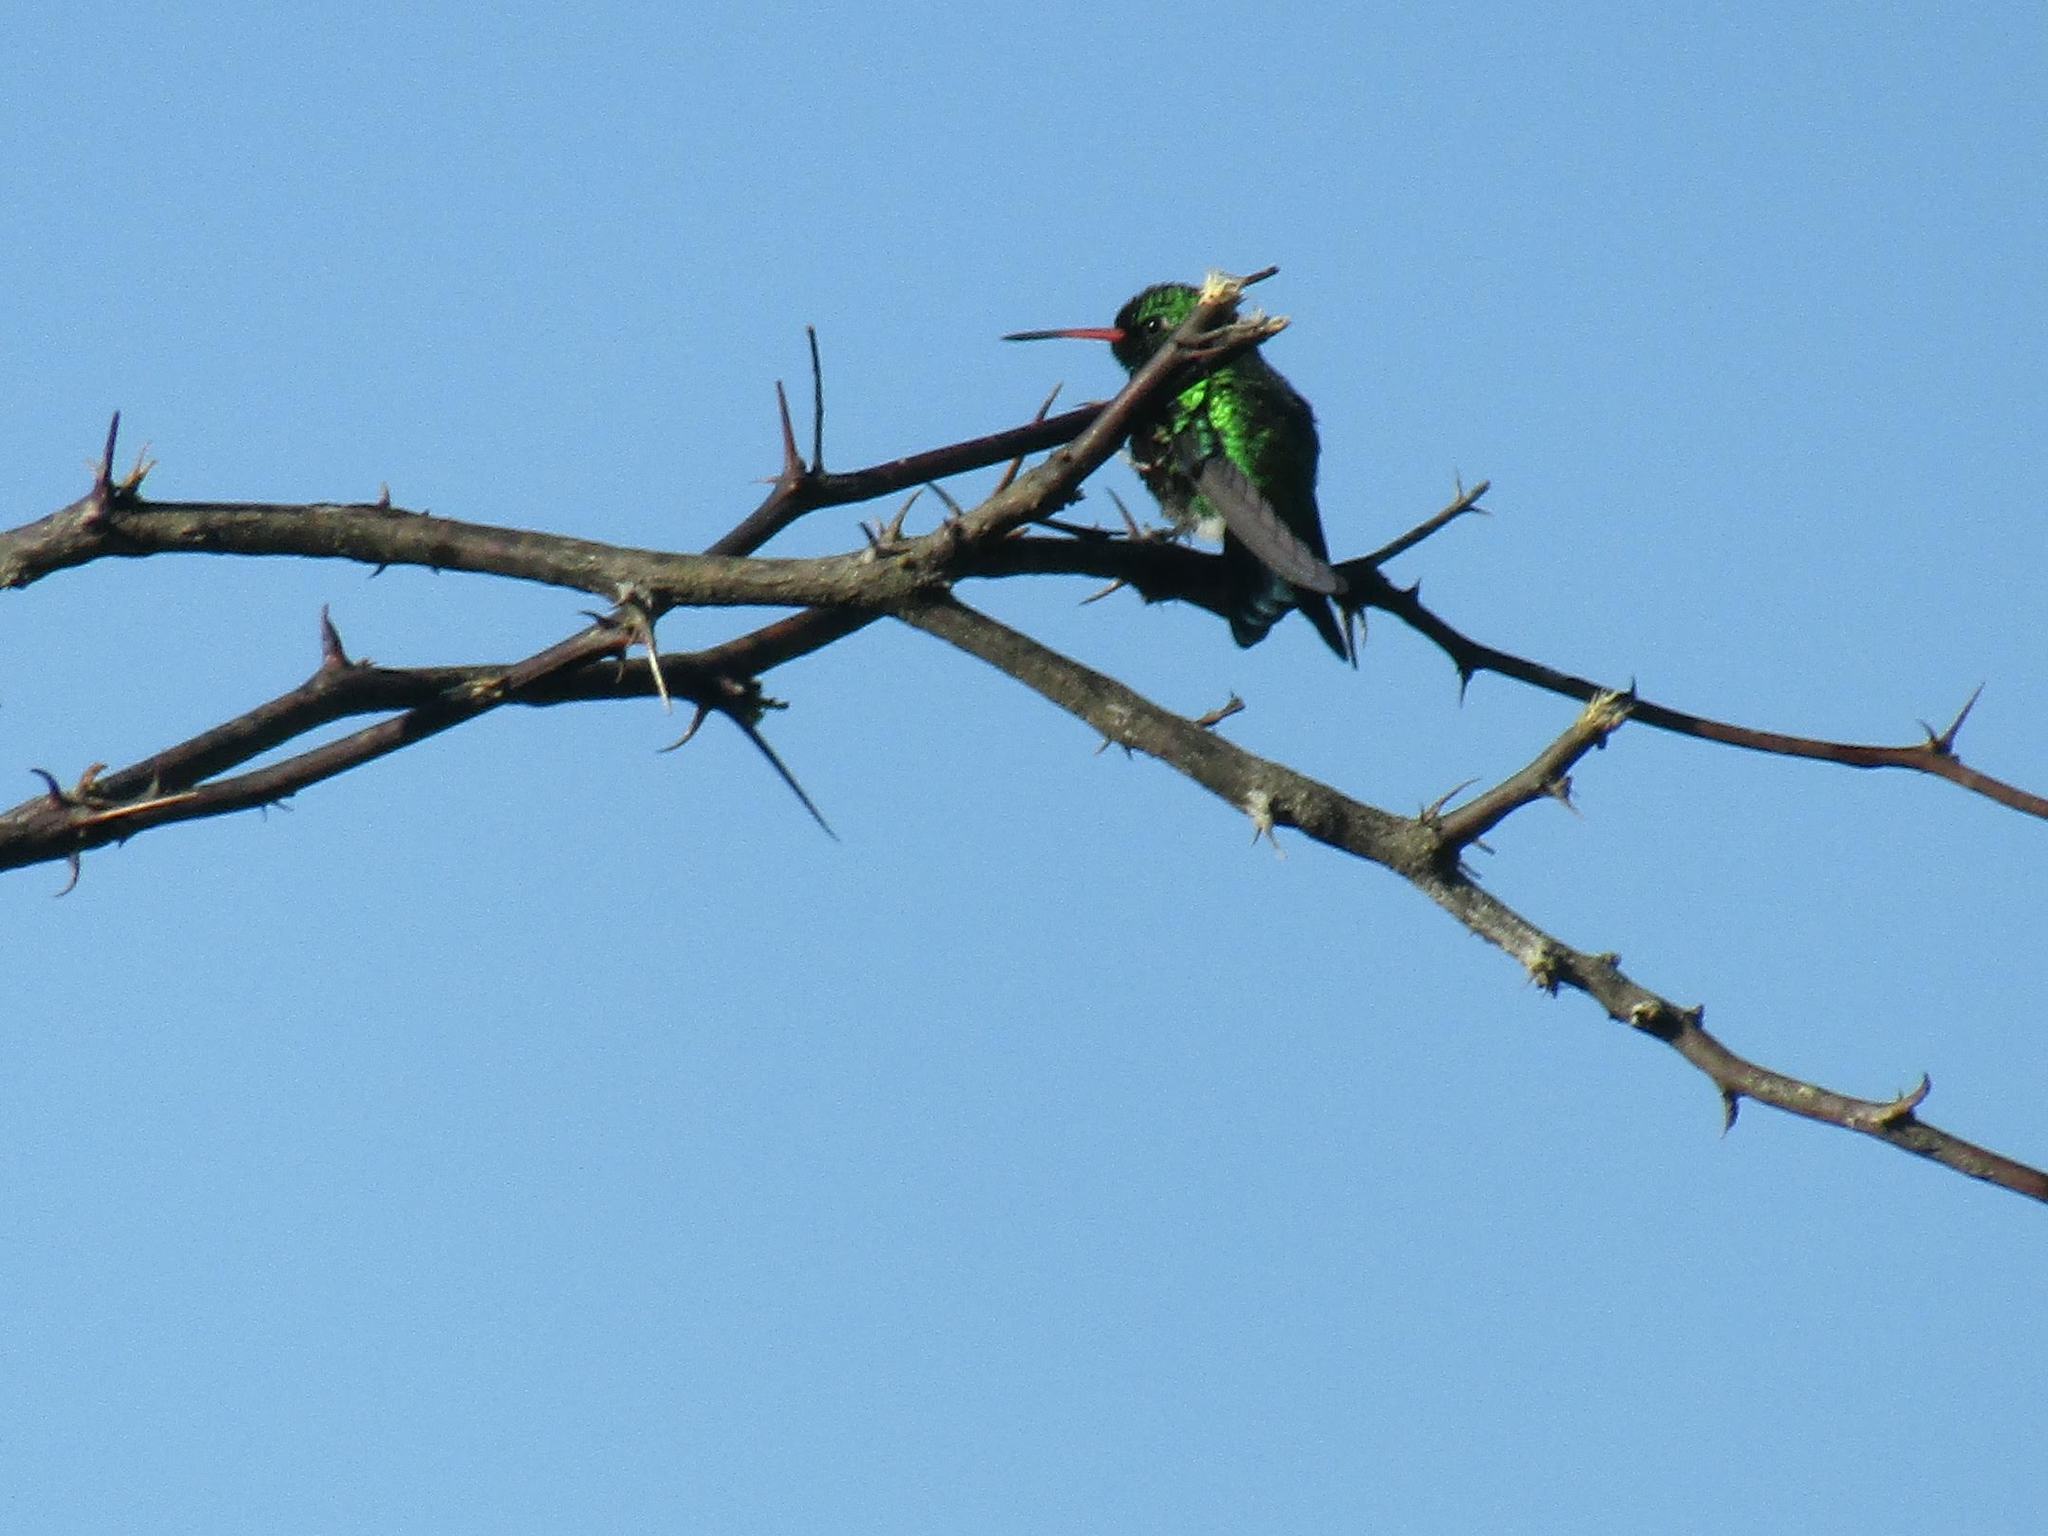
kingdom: Animalia
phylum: Chordata
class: Aves
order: Apodiformes
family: Trochilidae
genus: Chlorostilbon
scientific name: Chlorostilbon lucidus
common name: Glittering-bellied emerald
